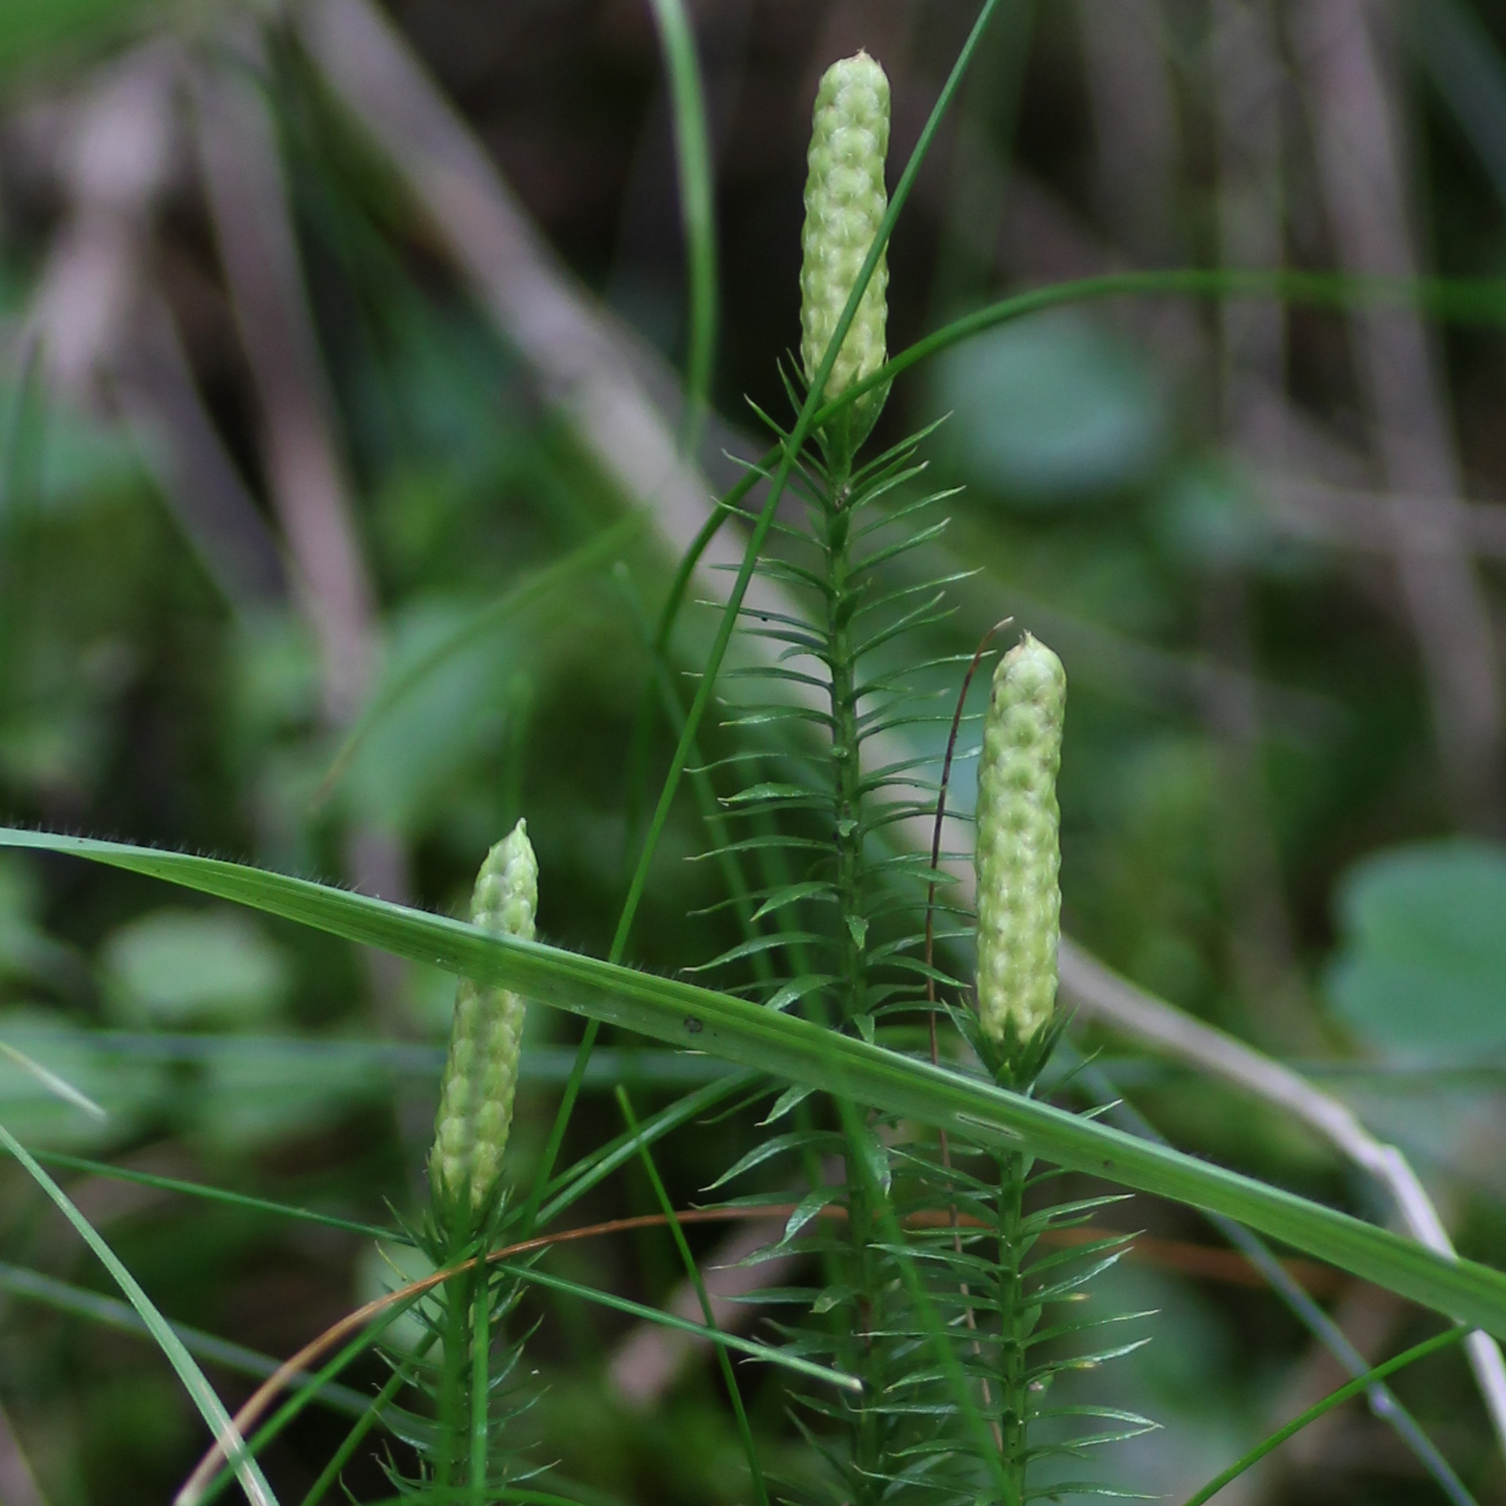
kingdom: Plantae
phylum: Tracheophyta
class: Lycopodiopsida
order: Lycopodiales
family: Lycopodiaceae
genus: Spinulum
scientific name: Spinulum annotinum
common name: Interrupted club-moss
